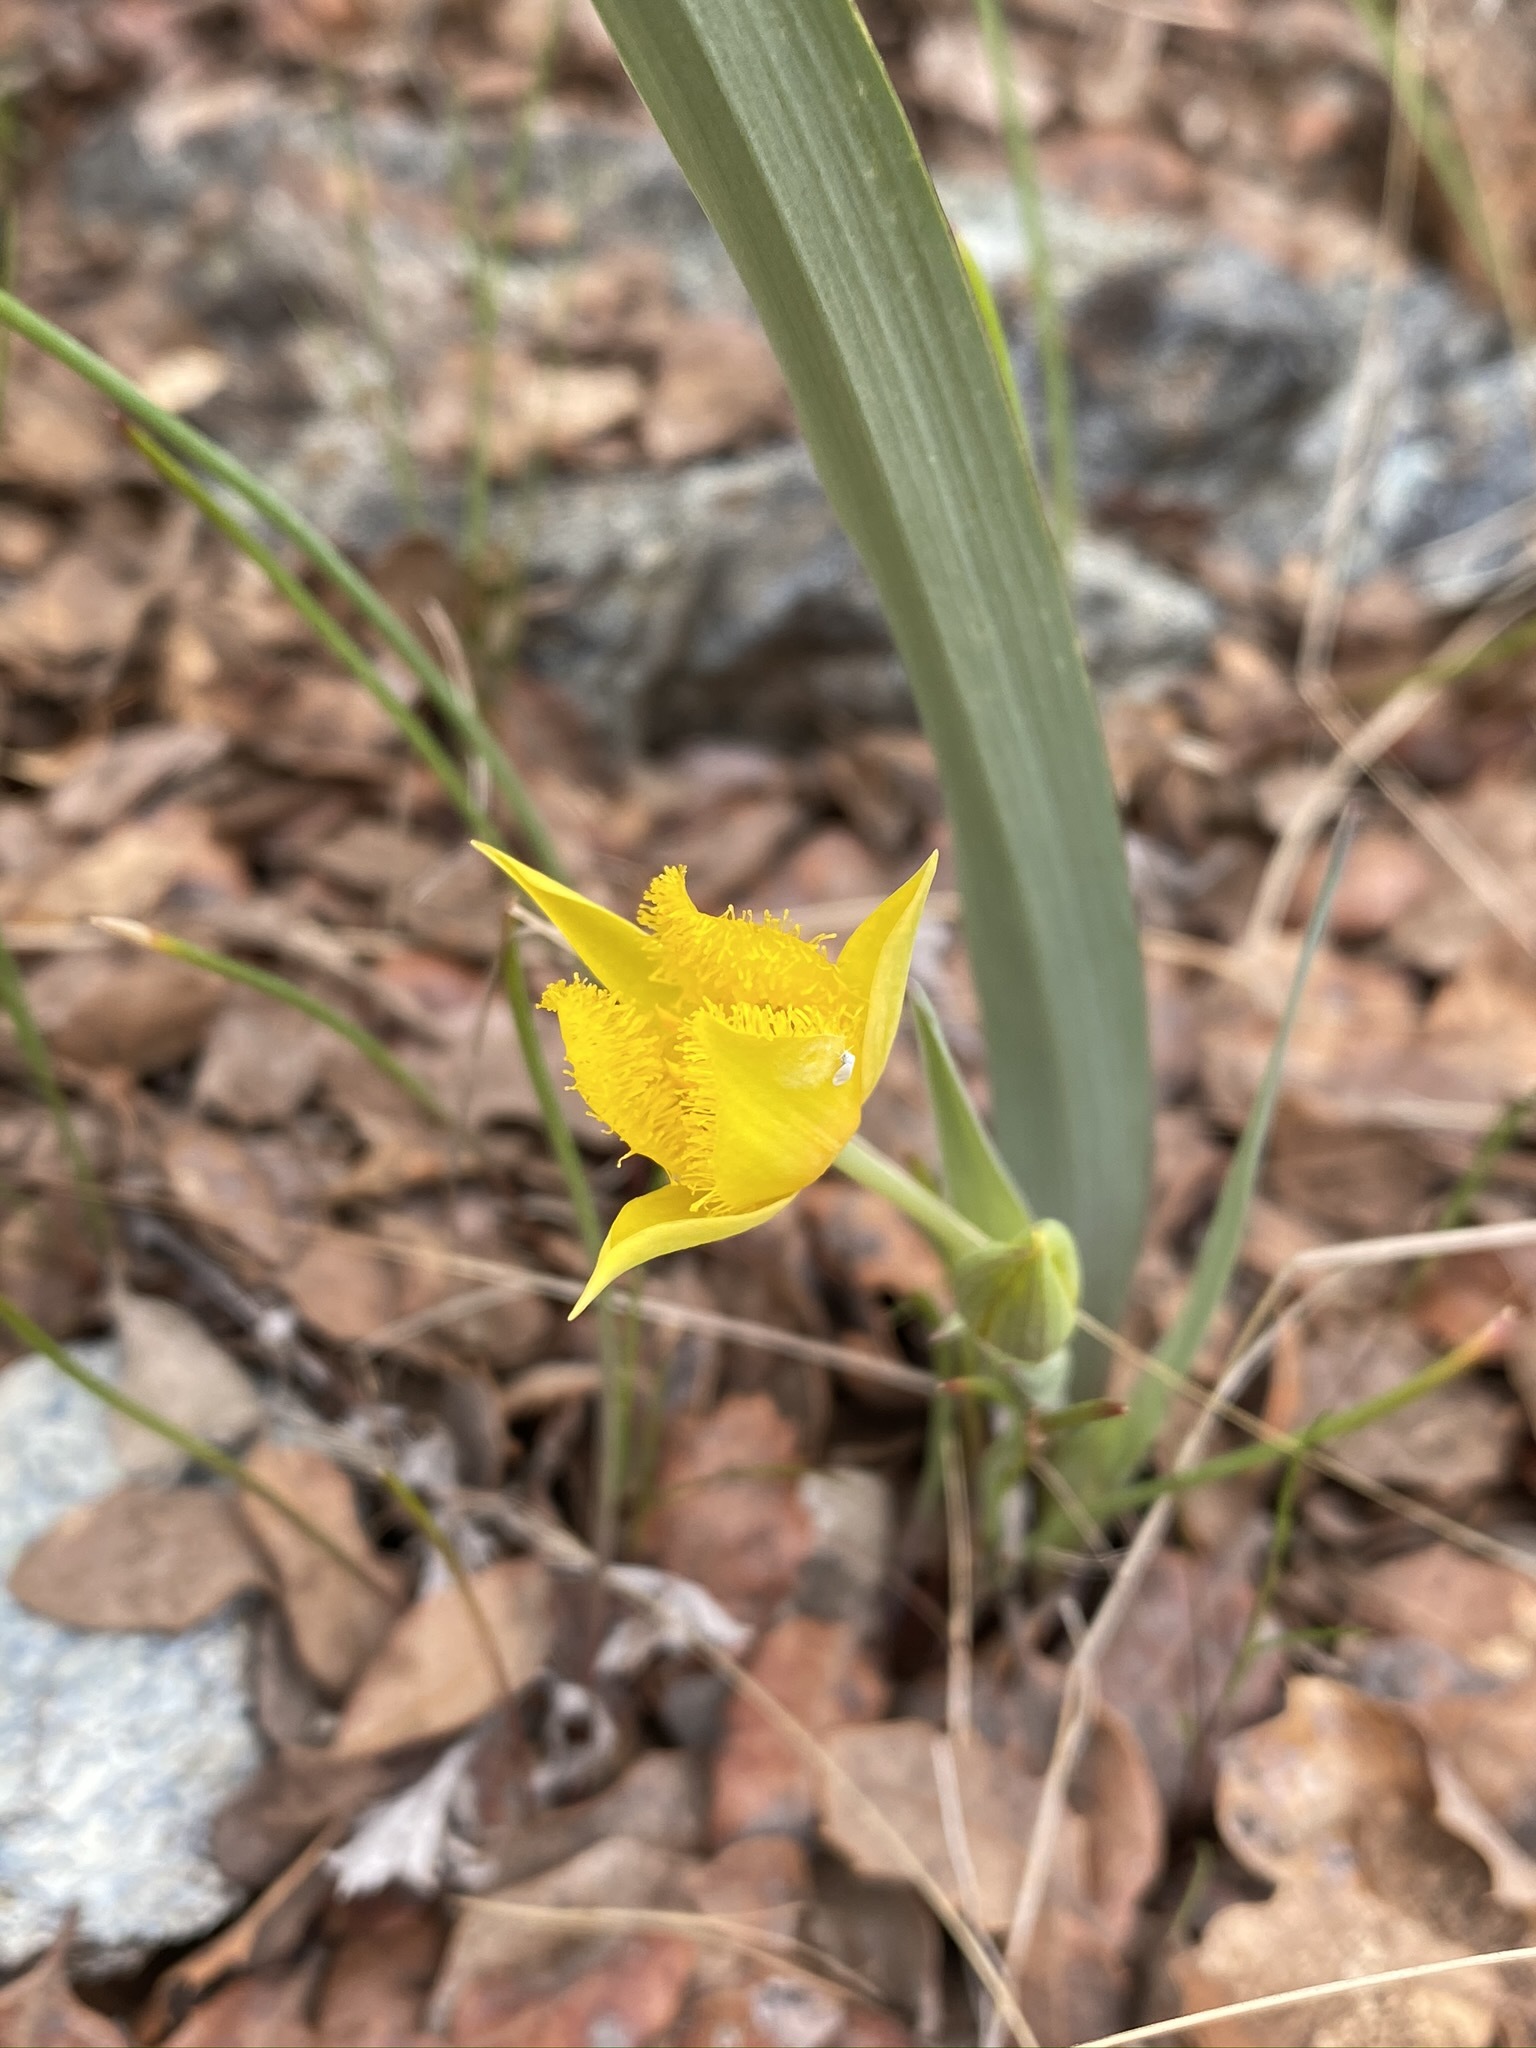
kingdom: Plantae
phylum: Tracheophyta
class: Liliopsida
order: Liliales
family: Liliaceae
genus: Calochortus
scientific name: Calochortus monophyllus
